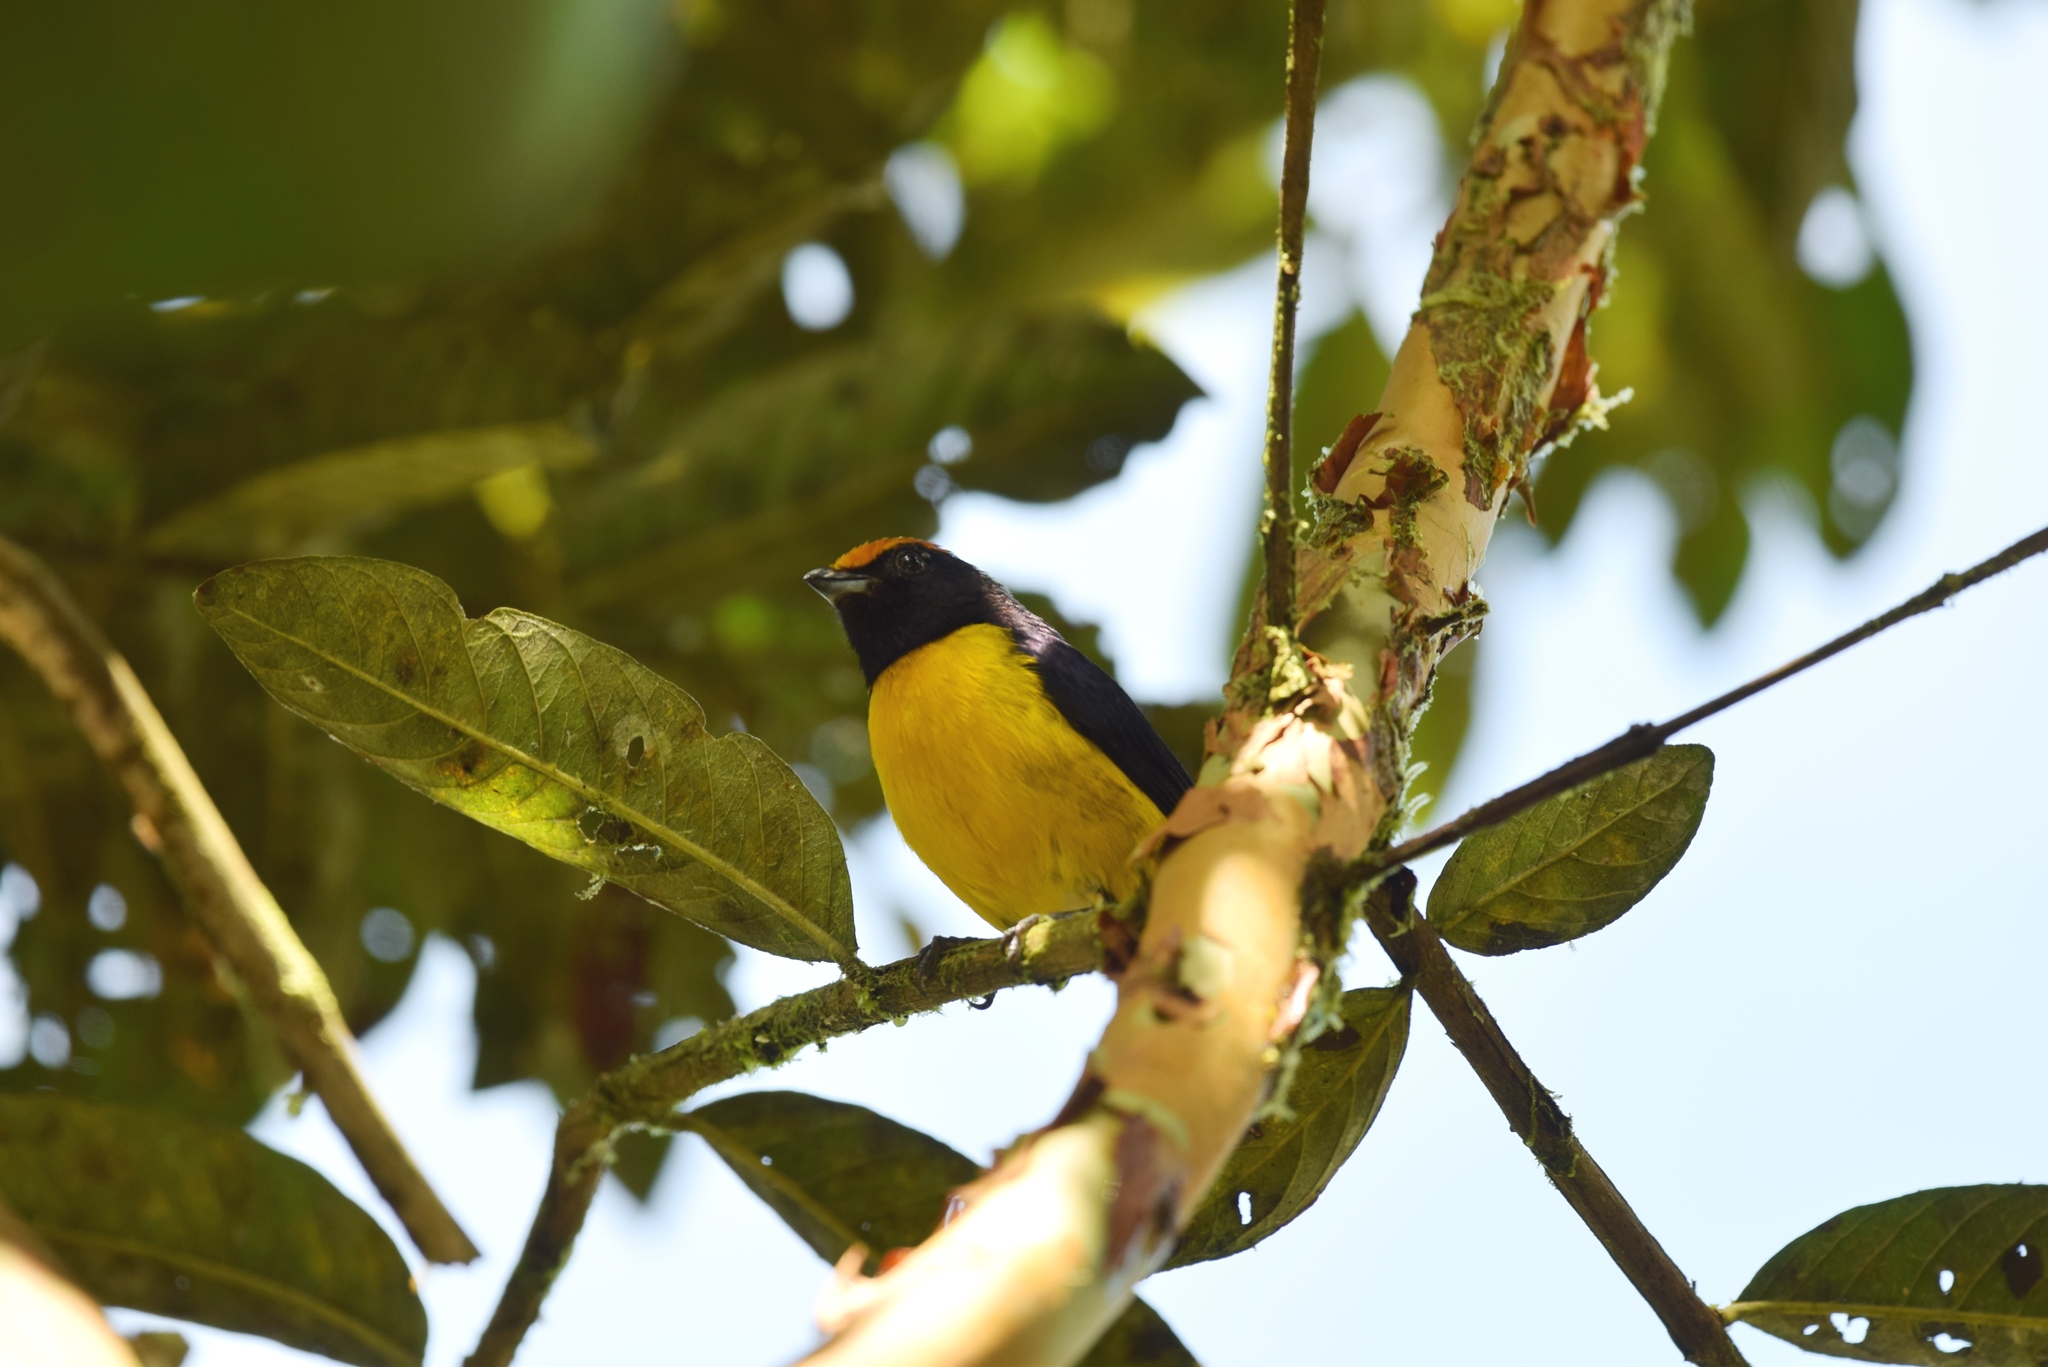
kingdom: Animalia
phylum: Chordata
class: Aves
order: Passeriformes
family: Fringillidae
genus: Euphonia
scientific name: Euphonia anneae
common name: Tawny-capped euphonia
